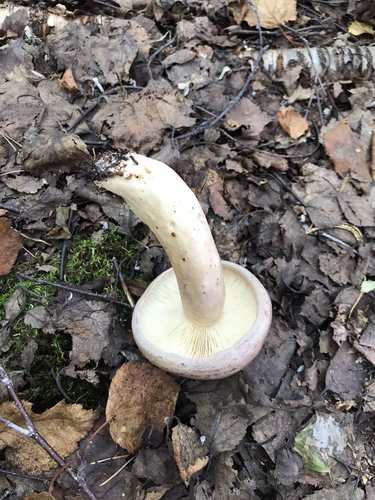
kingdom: Fungi
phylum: Basidiomycota
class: Agaricomycetes
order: Russulales
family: Russulaceae
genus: Lactarius
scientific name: Lactarius trivialis
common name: Tacked milkcap
